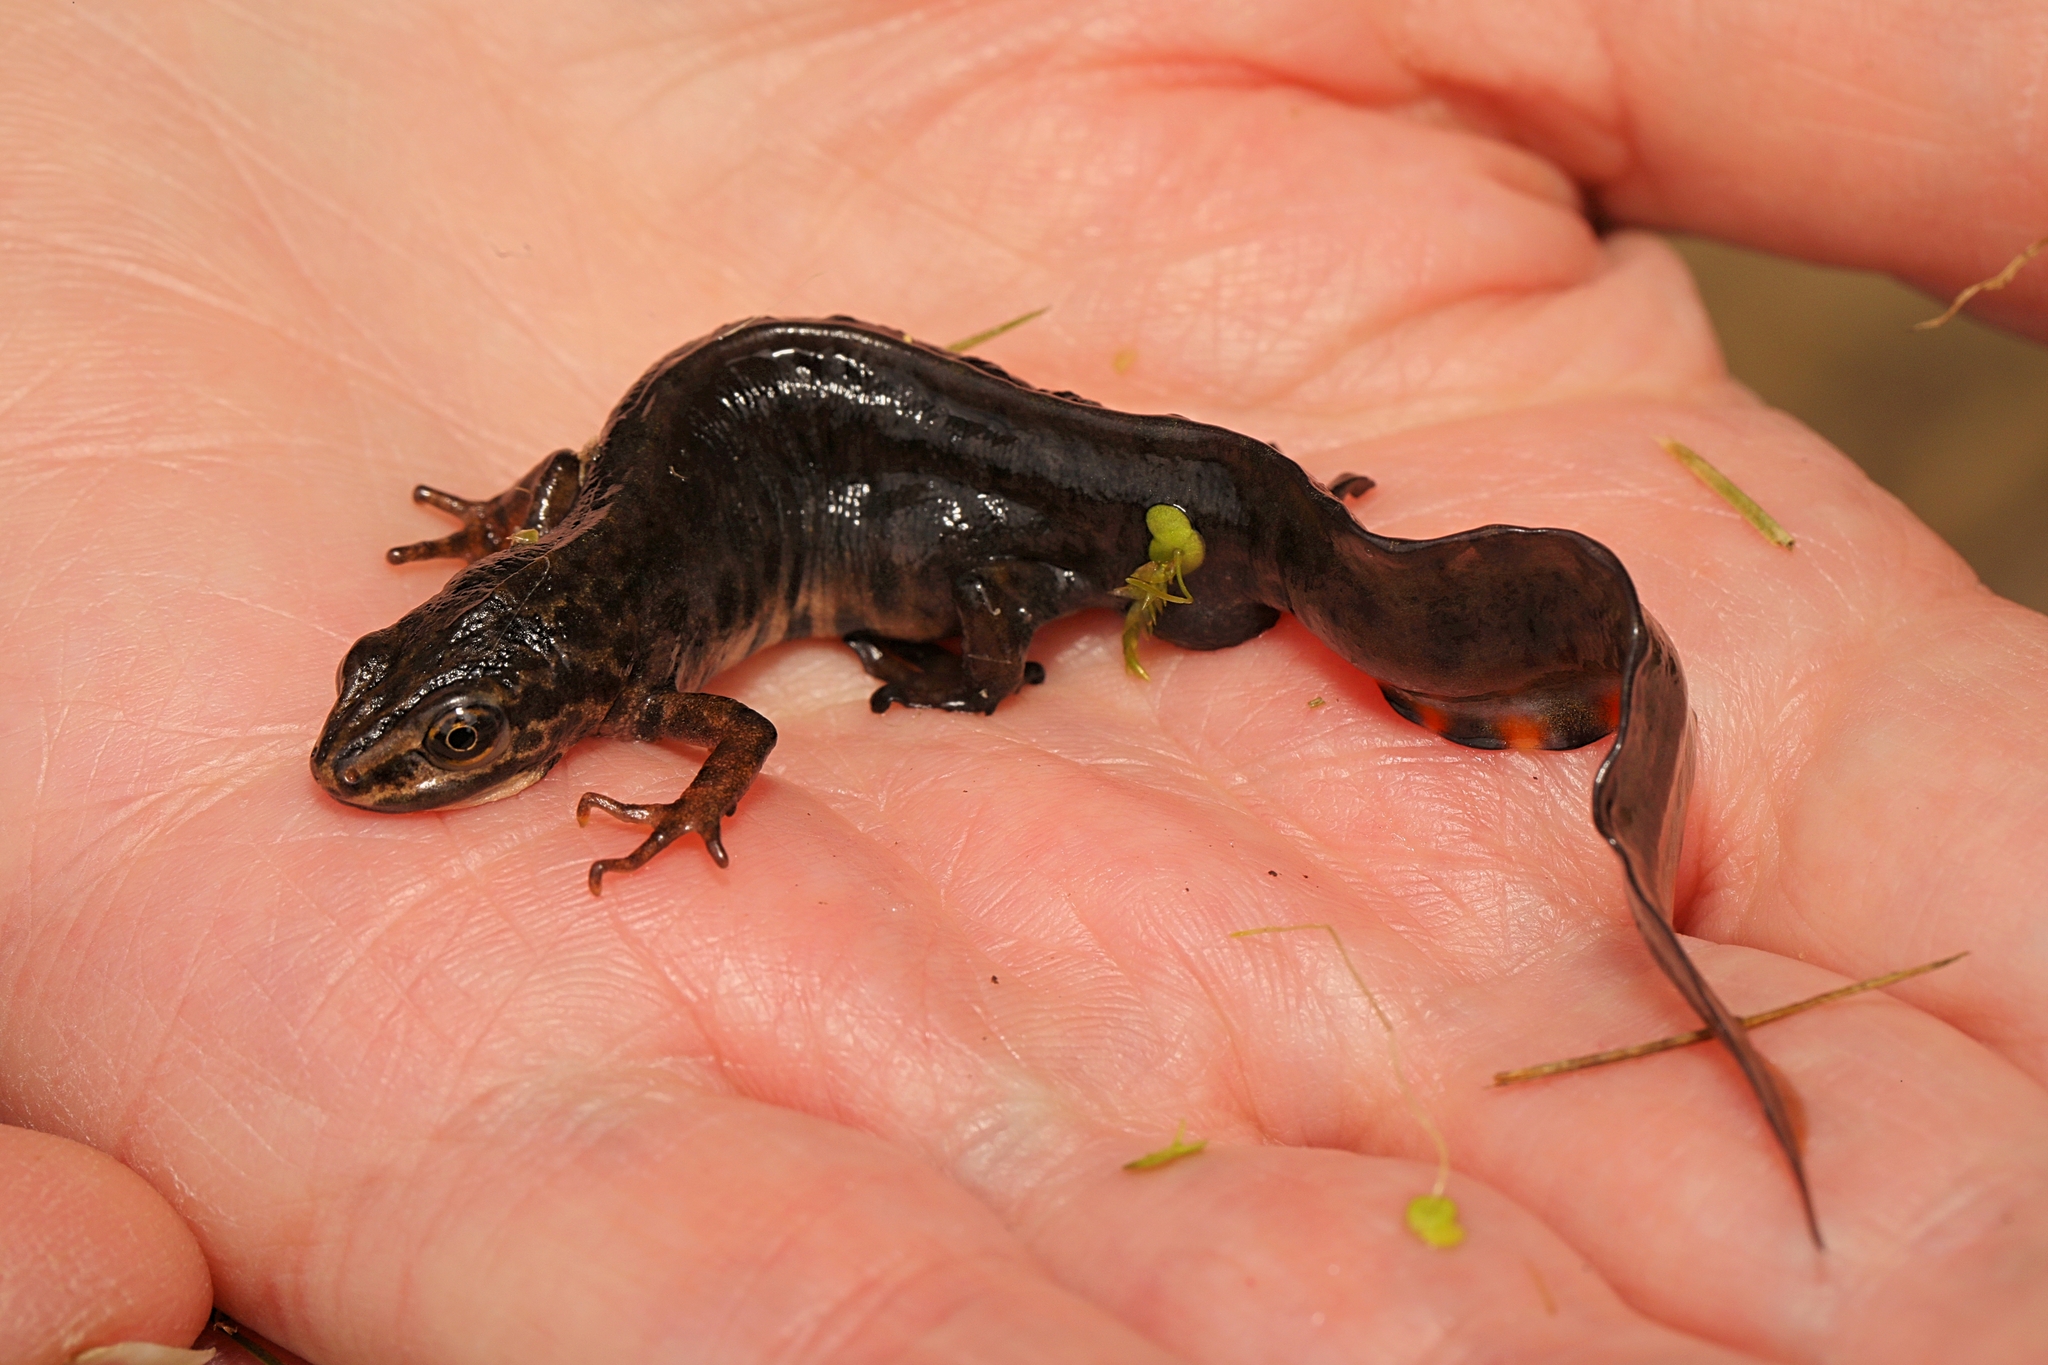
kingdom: Animalia
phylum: Chordata
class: Amphibia
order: Caudata
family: Salamandridae
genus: Lissotriton
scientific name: Lissotriton vulgaris
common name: Smooth newt
